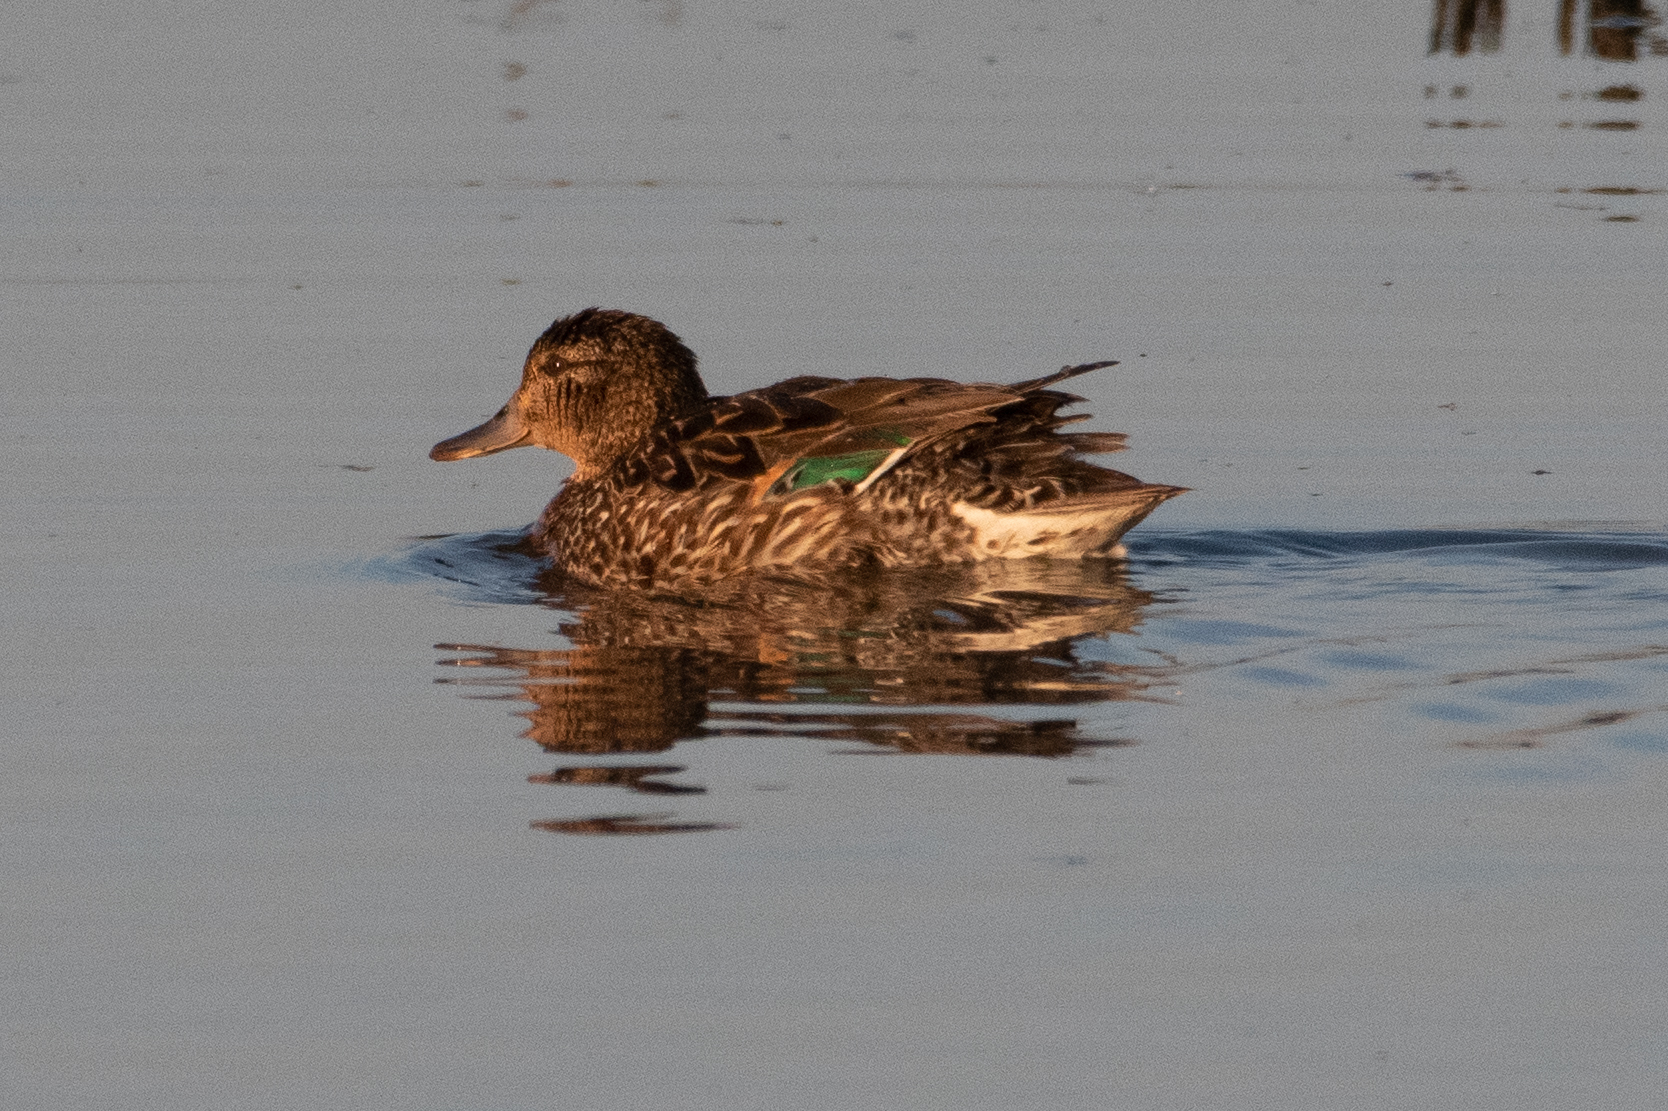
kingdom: Animalia
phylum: Chordata
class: Aves
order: Anseriformes
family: Anatidae
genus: Anas
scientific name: Anas crecca
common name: Eurasian teal
